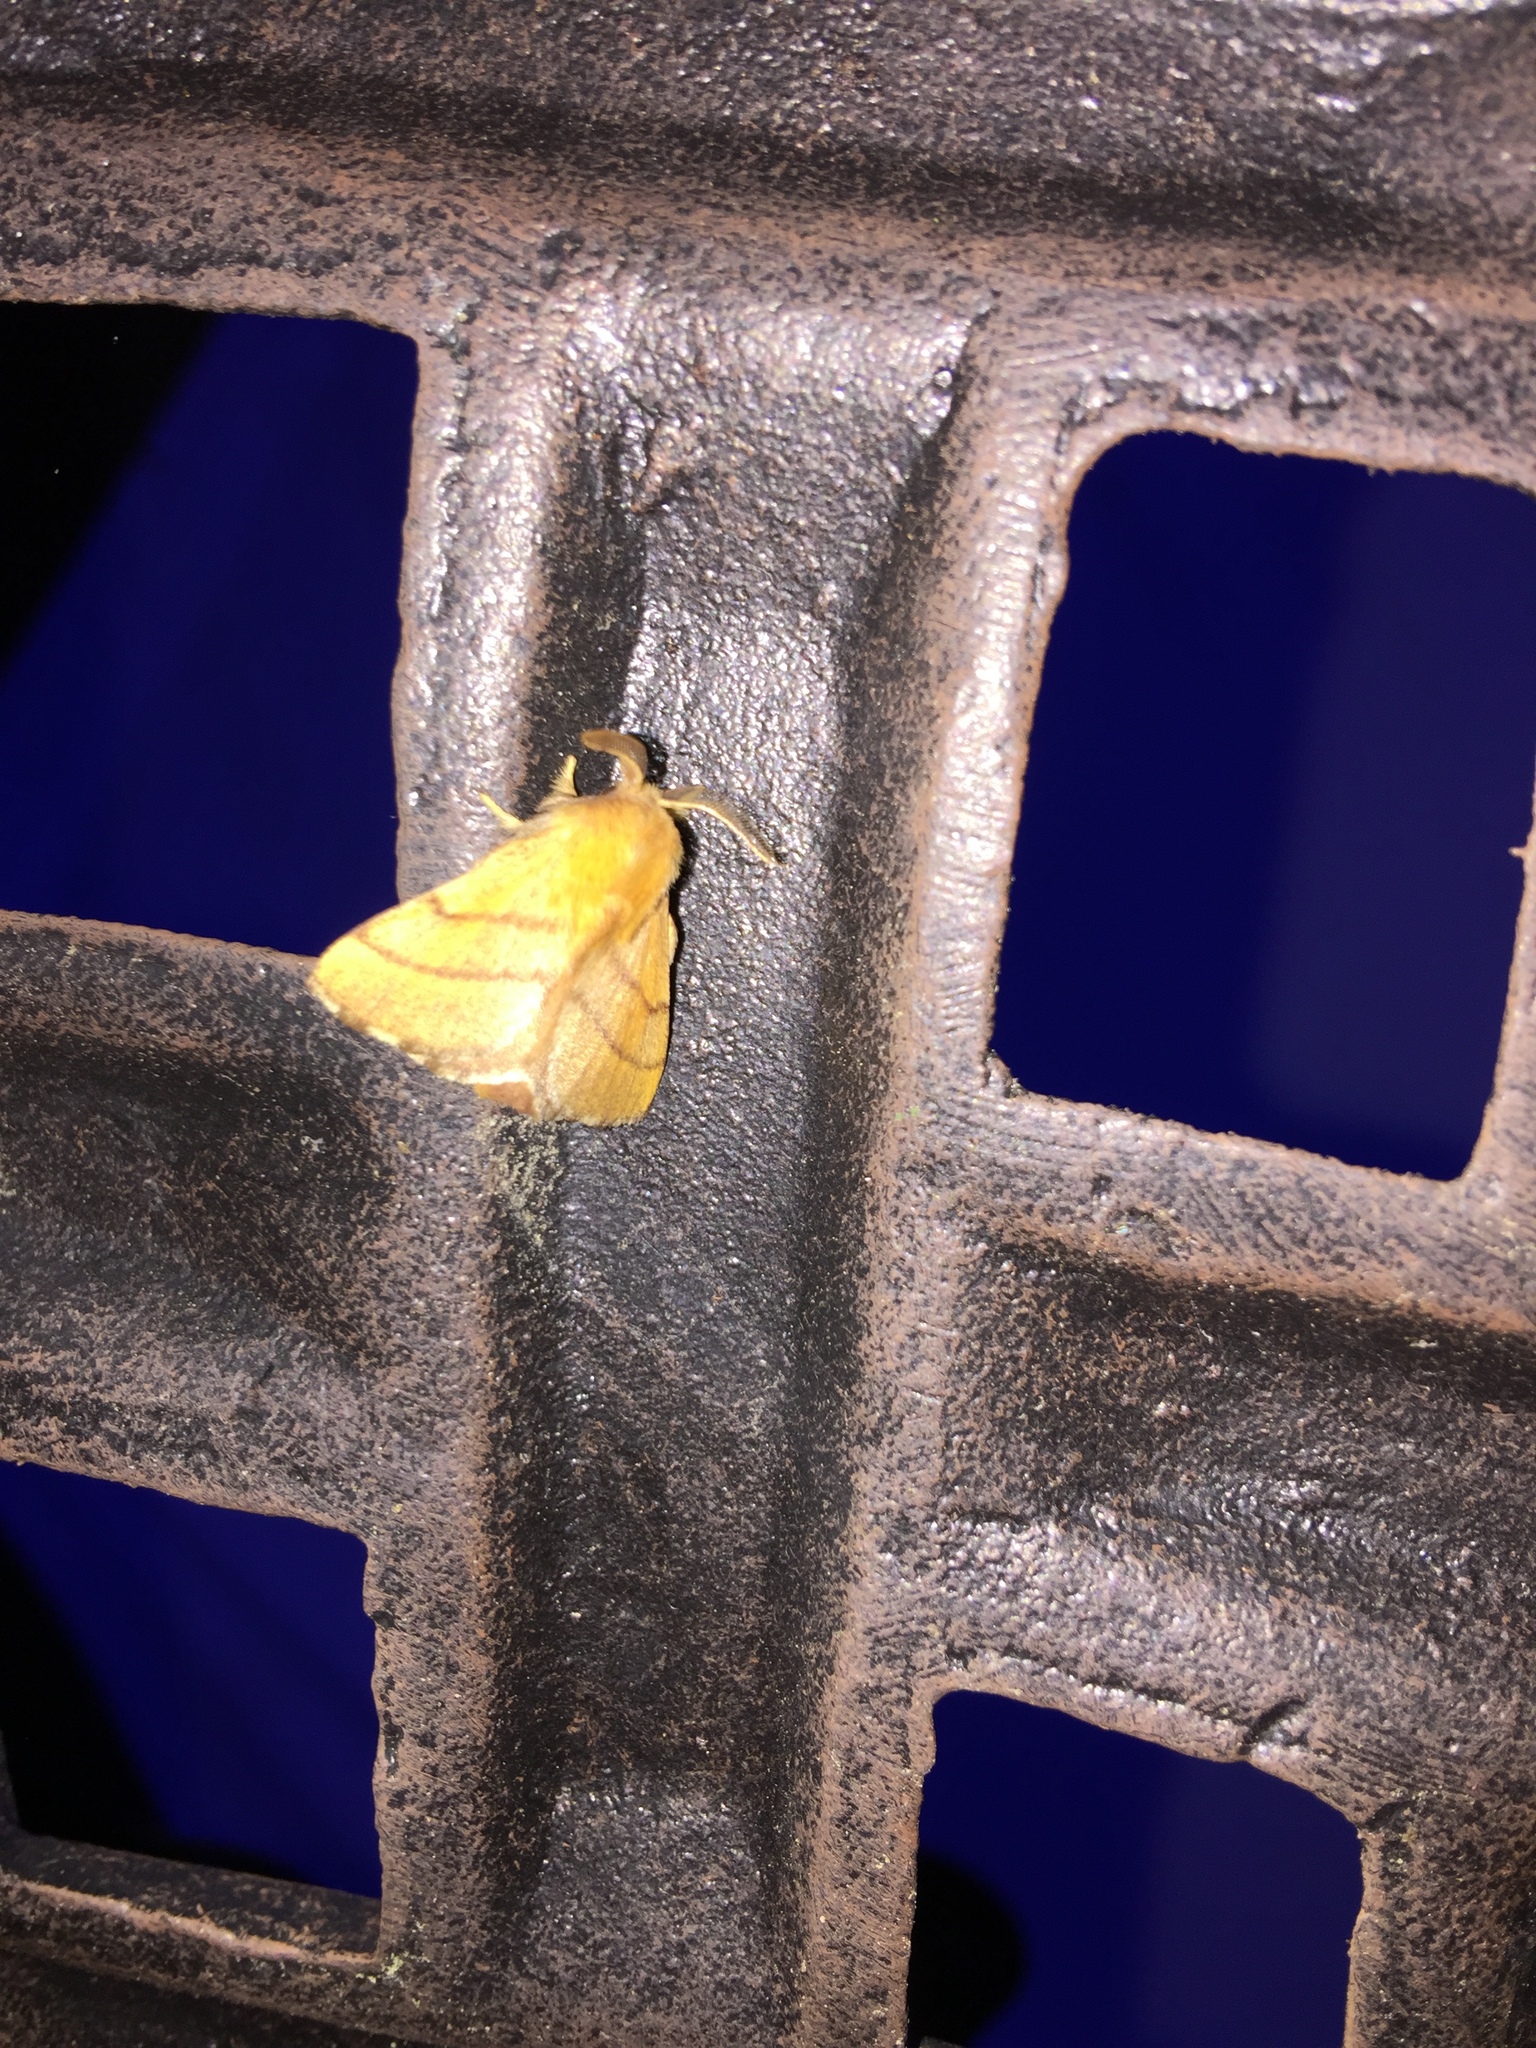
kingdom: Animalia
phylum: Arthropoda
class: Insecta
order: Lepidoptera
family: Lasiocampidae
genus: Malacosoma
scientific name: Malacosoma disstria
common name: Forest tent caterpillar
